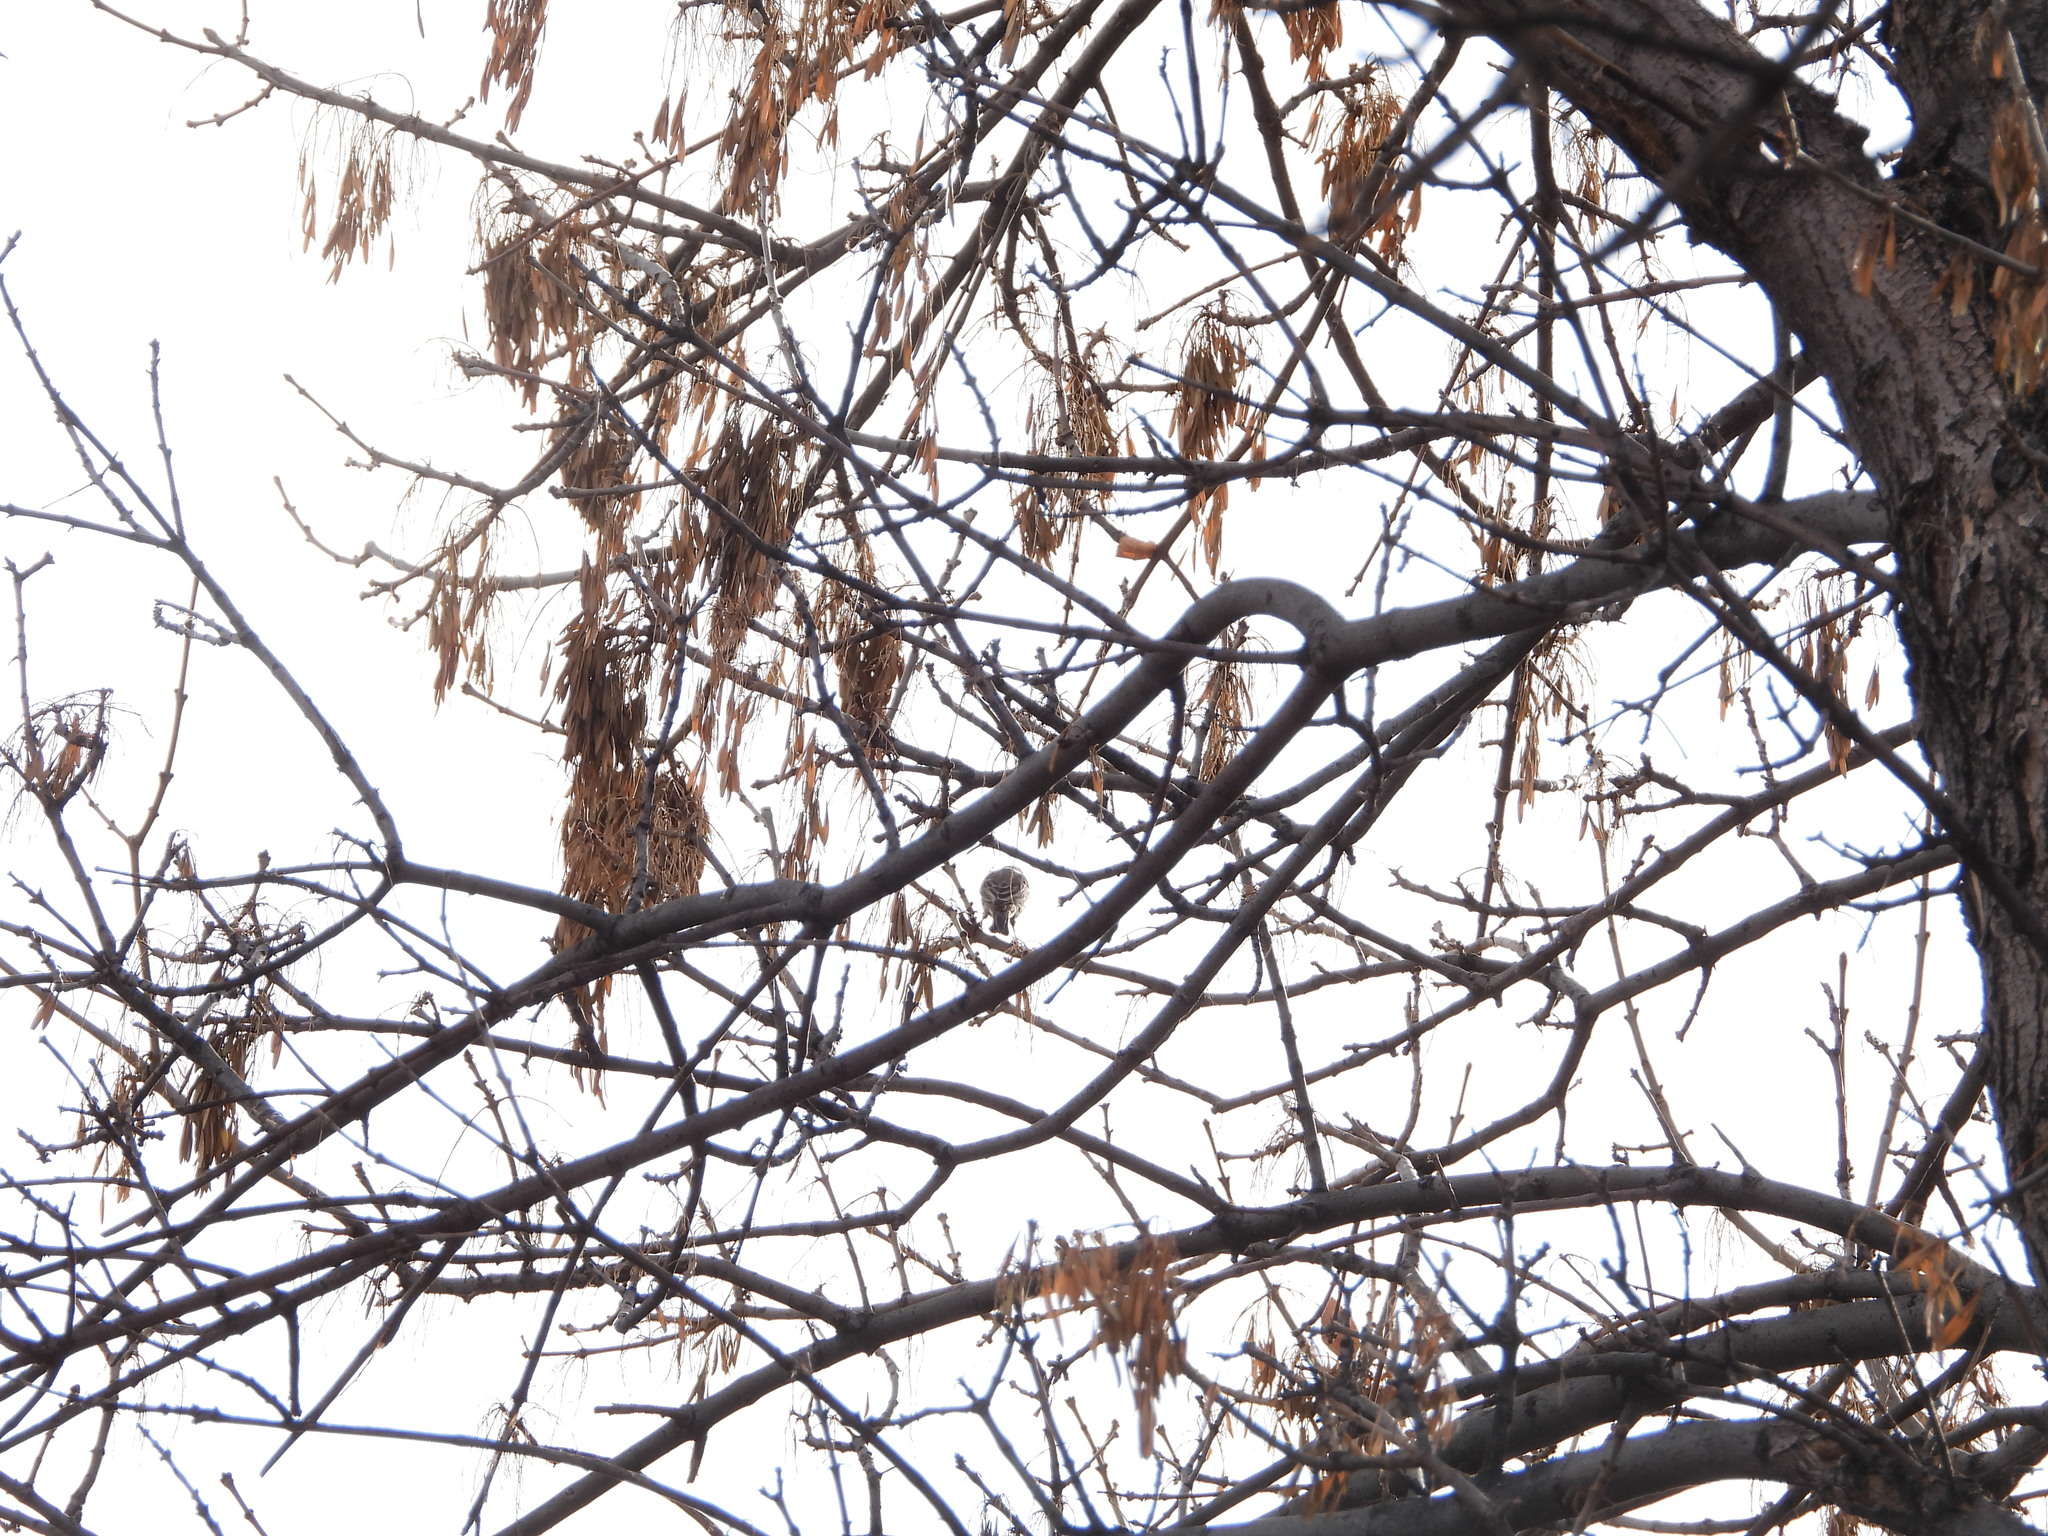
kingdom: Animalia
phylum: Chordata
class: Aves
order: Passeriformes
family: Fringillidae
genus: Haemorhous
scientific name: Haemorhous mexicanus
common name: House finch
